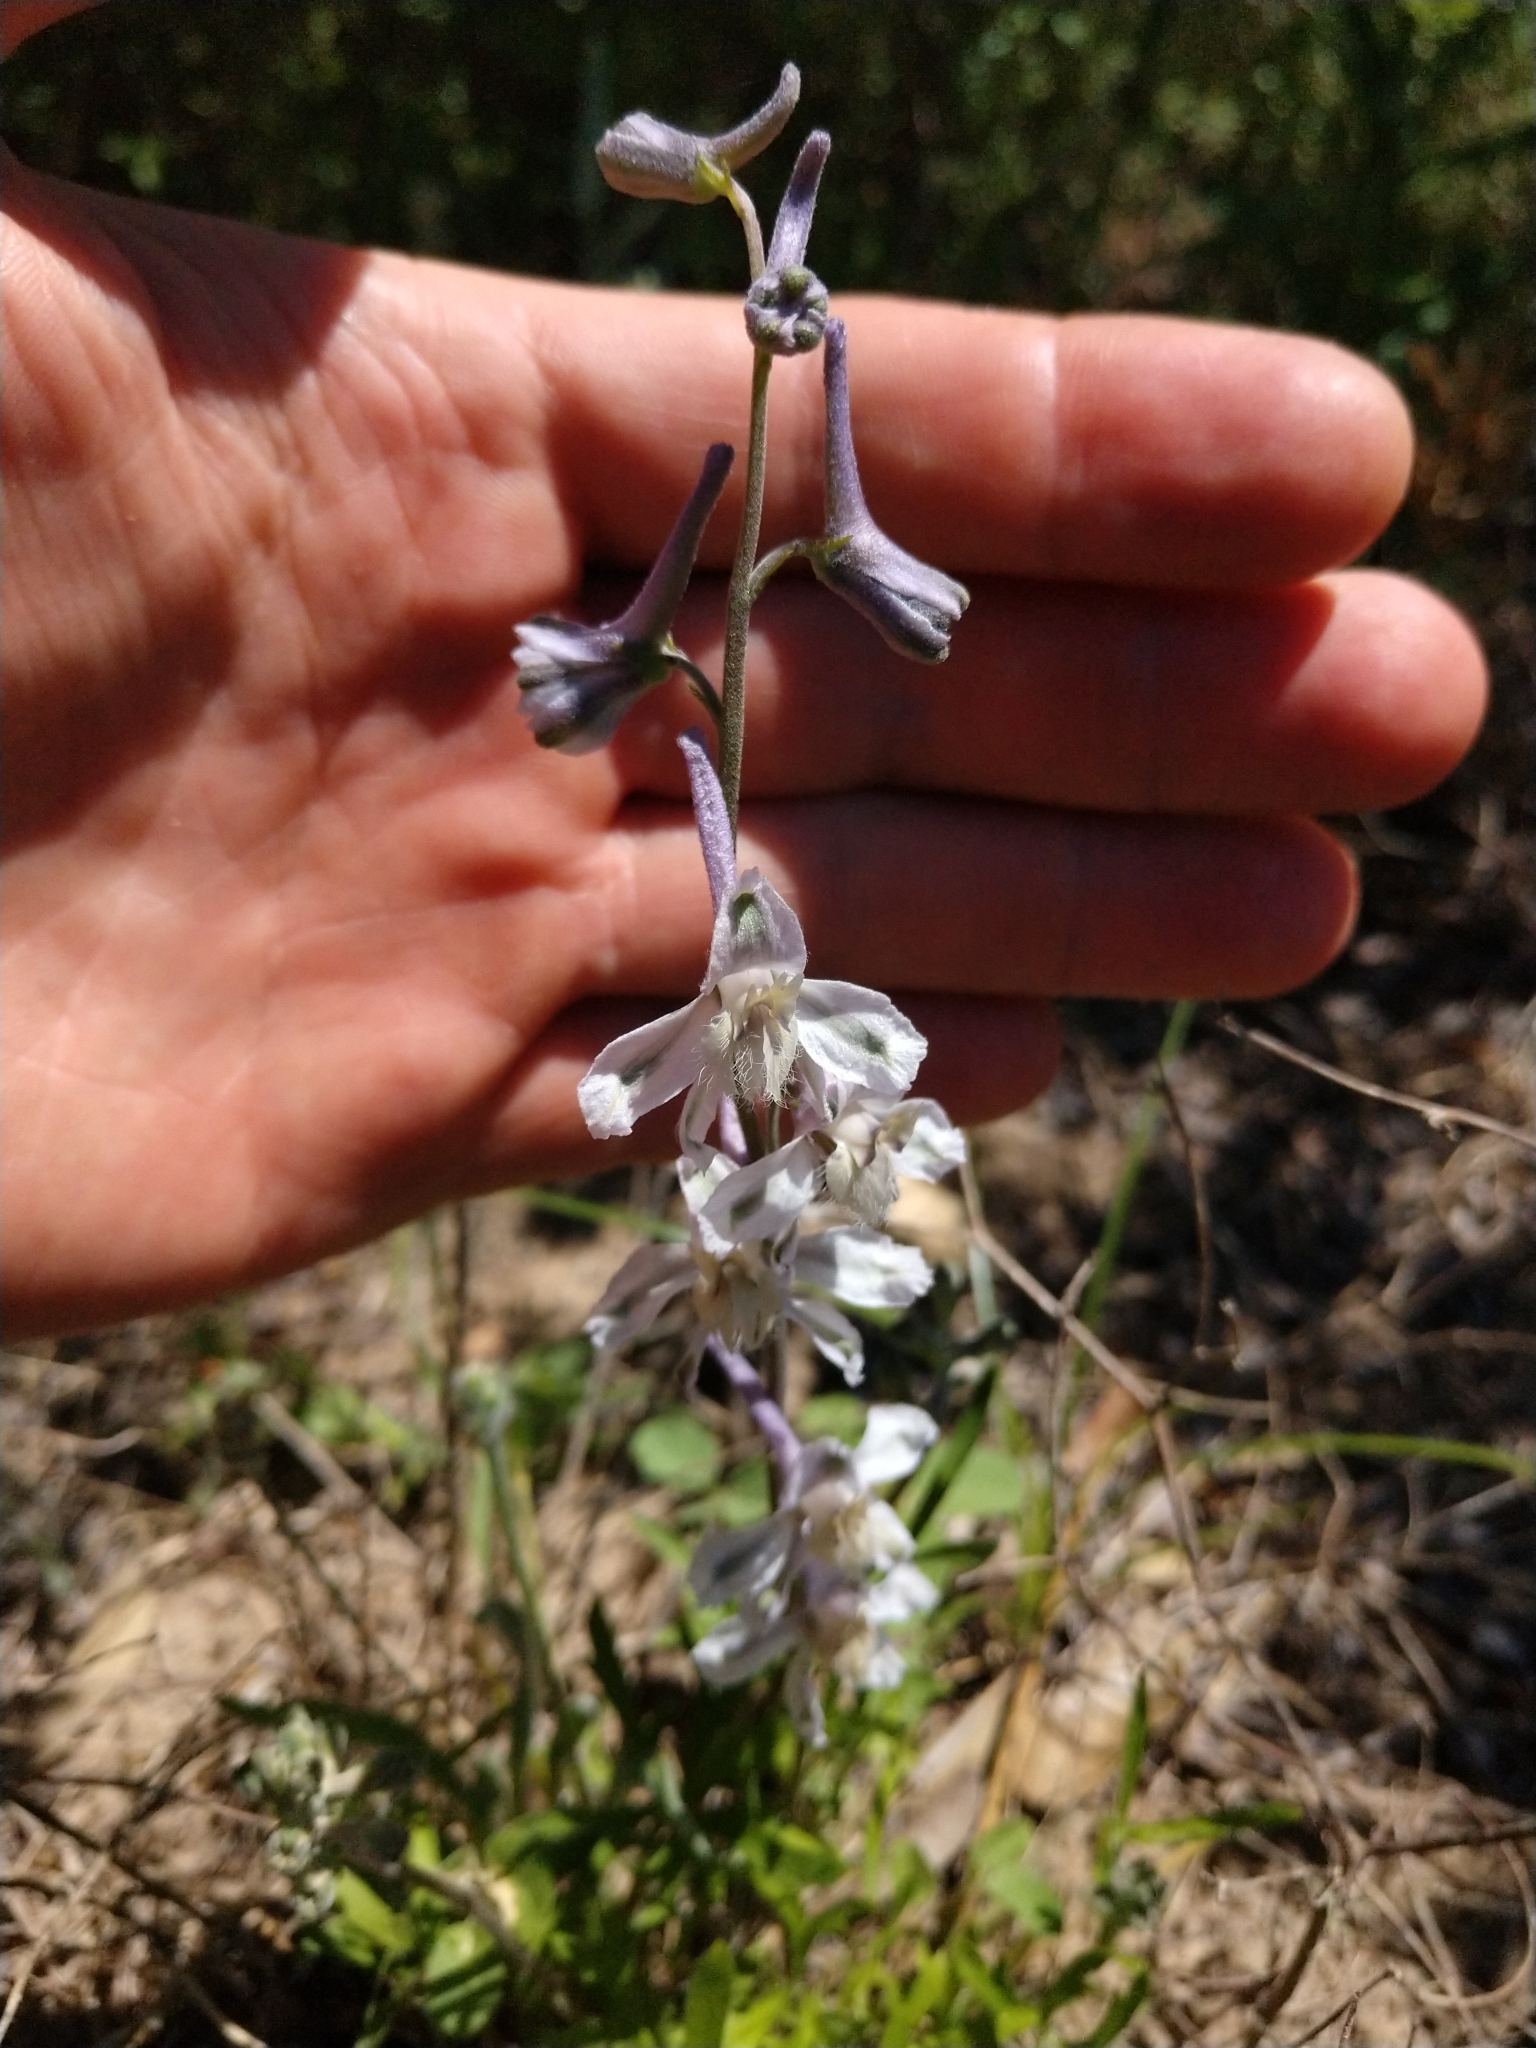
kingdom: Plantae
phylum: Tracheophyta
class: Magnoliopsida
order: Ranunculales
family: Ranunculaceae
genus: Delphinium
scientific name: Delphinium carolinianum
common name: Carolina larkspur
